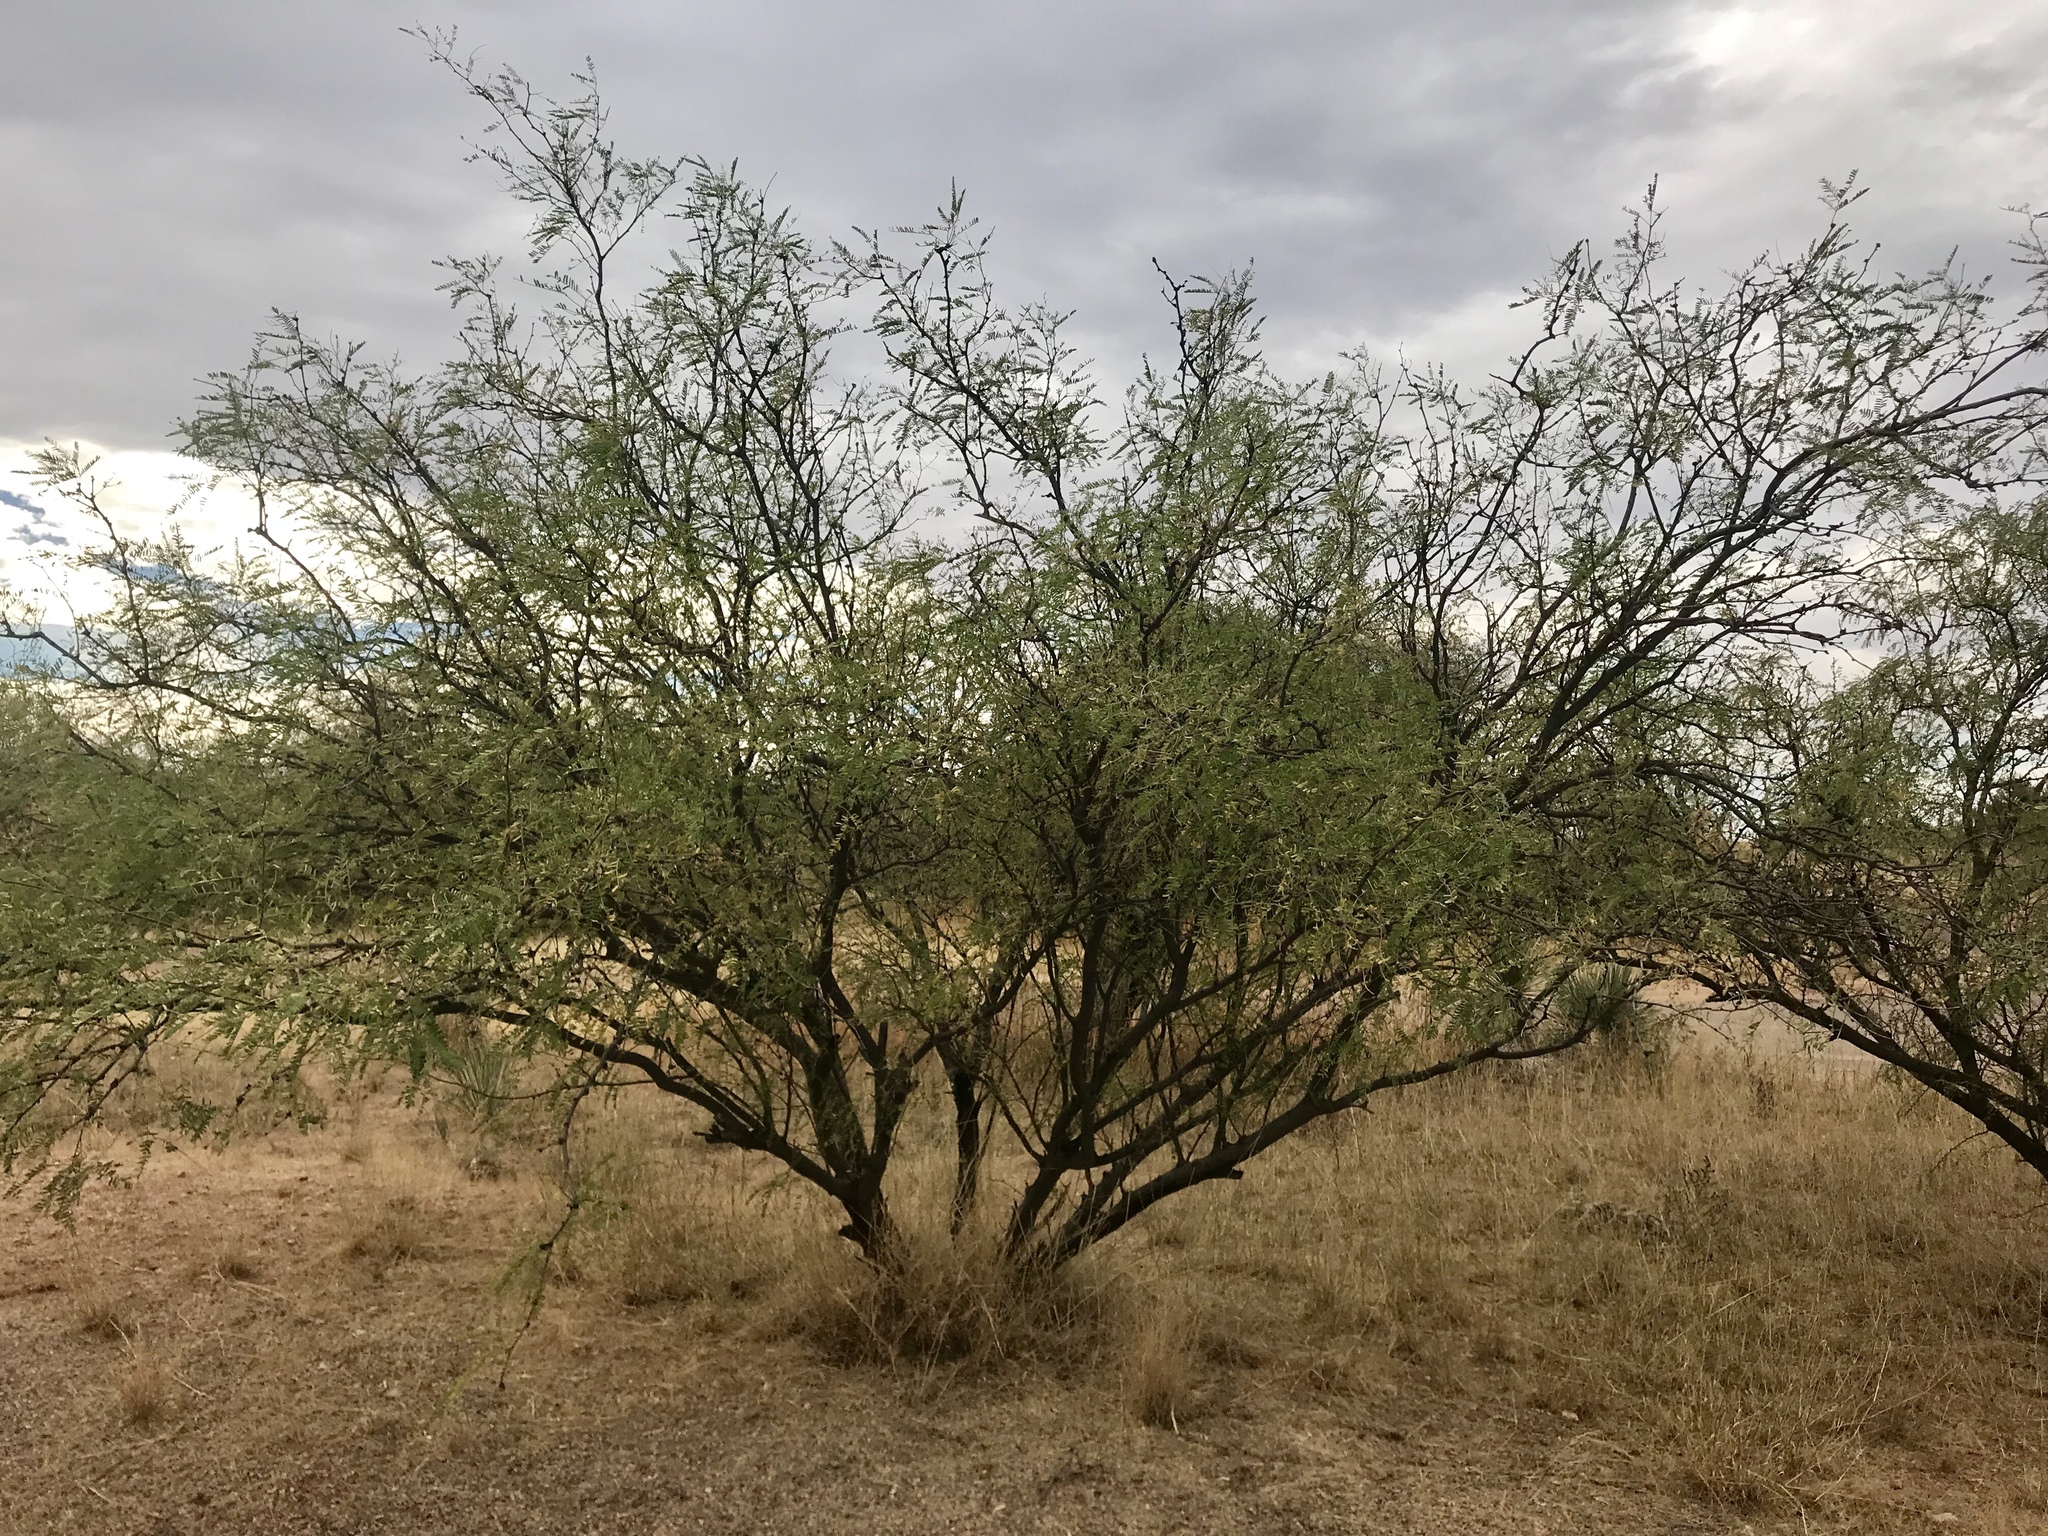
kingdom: Plantae
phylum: Tracheophyta
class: Magnoliopsida
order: Fabales
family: Fabaceae
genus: Prosopis
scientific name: Prosopis glandulosa
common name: Honey mesquite
